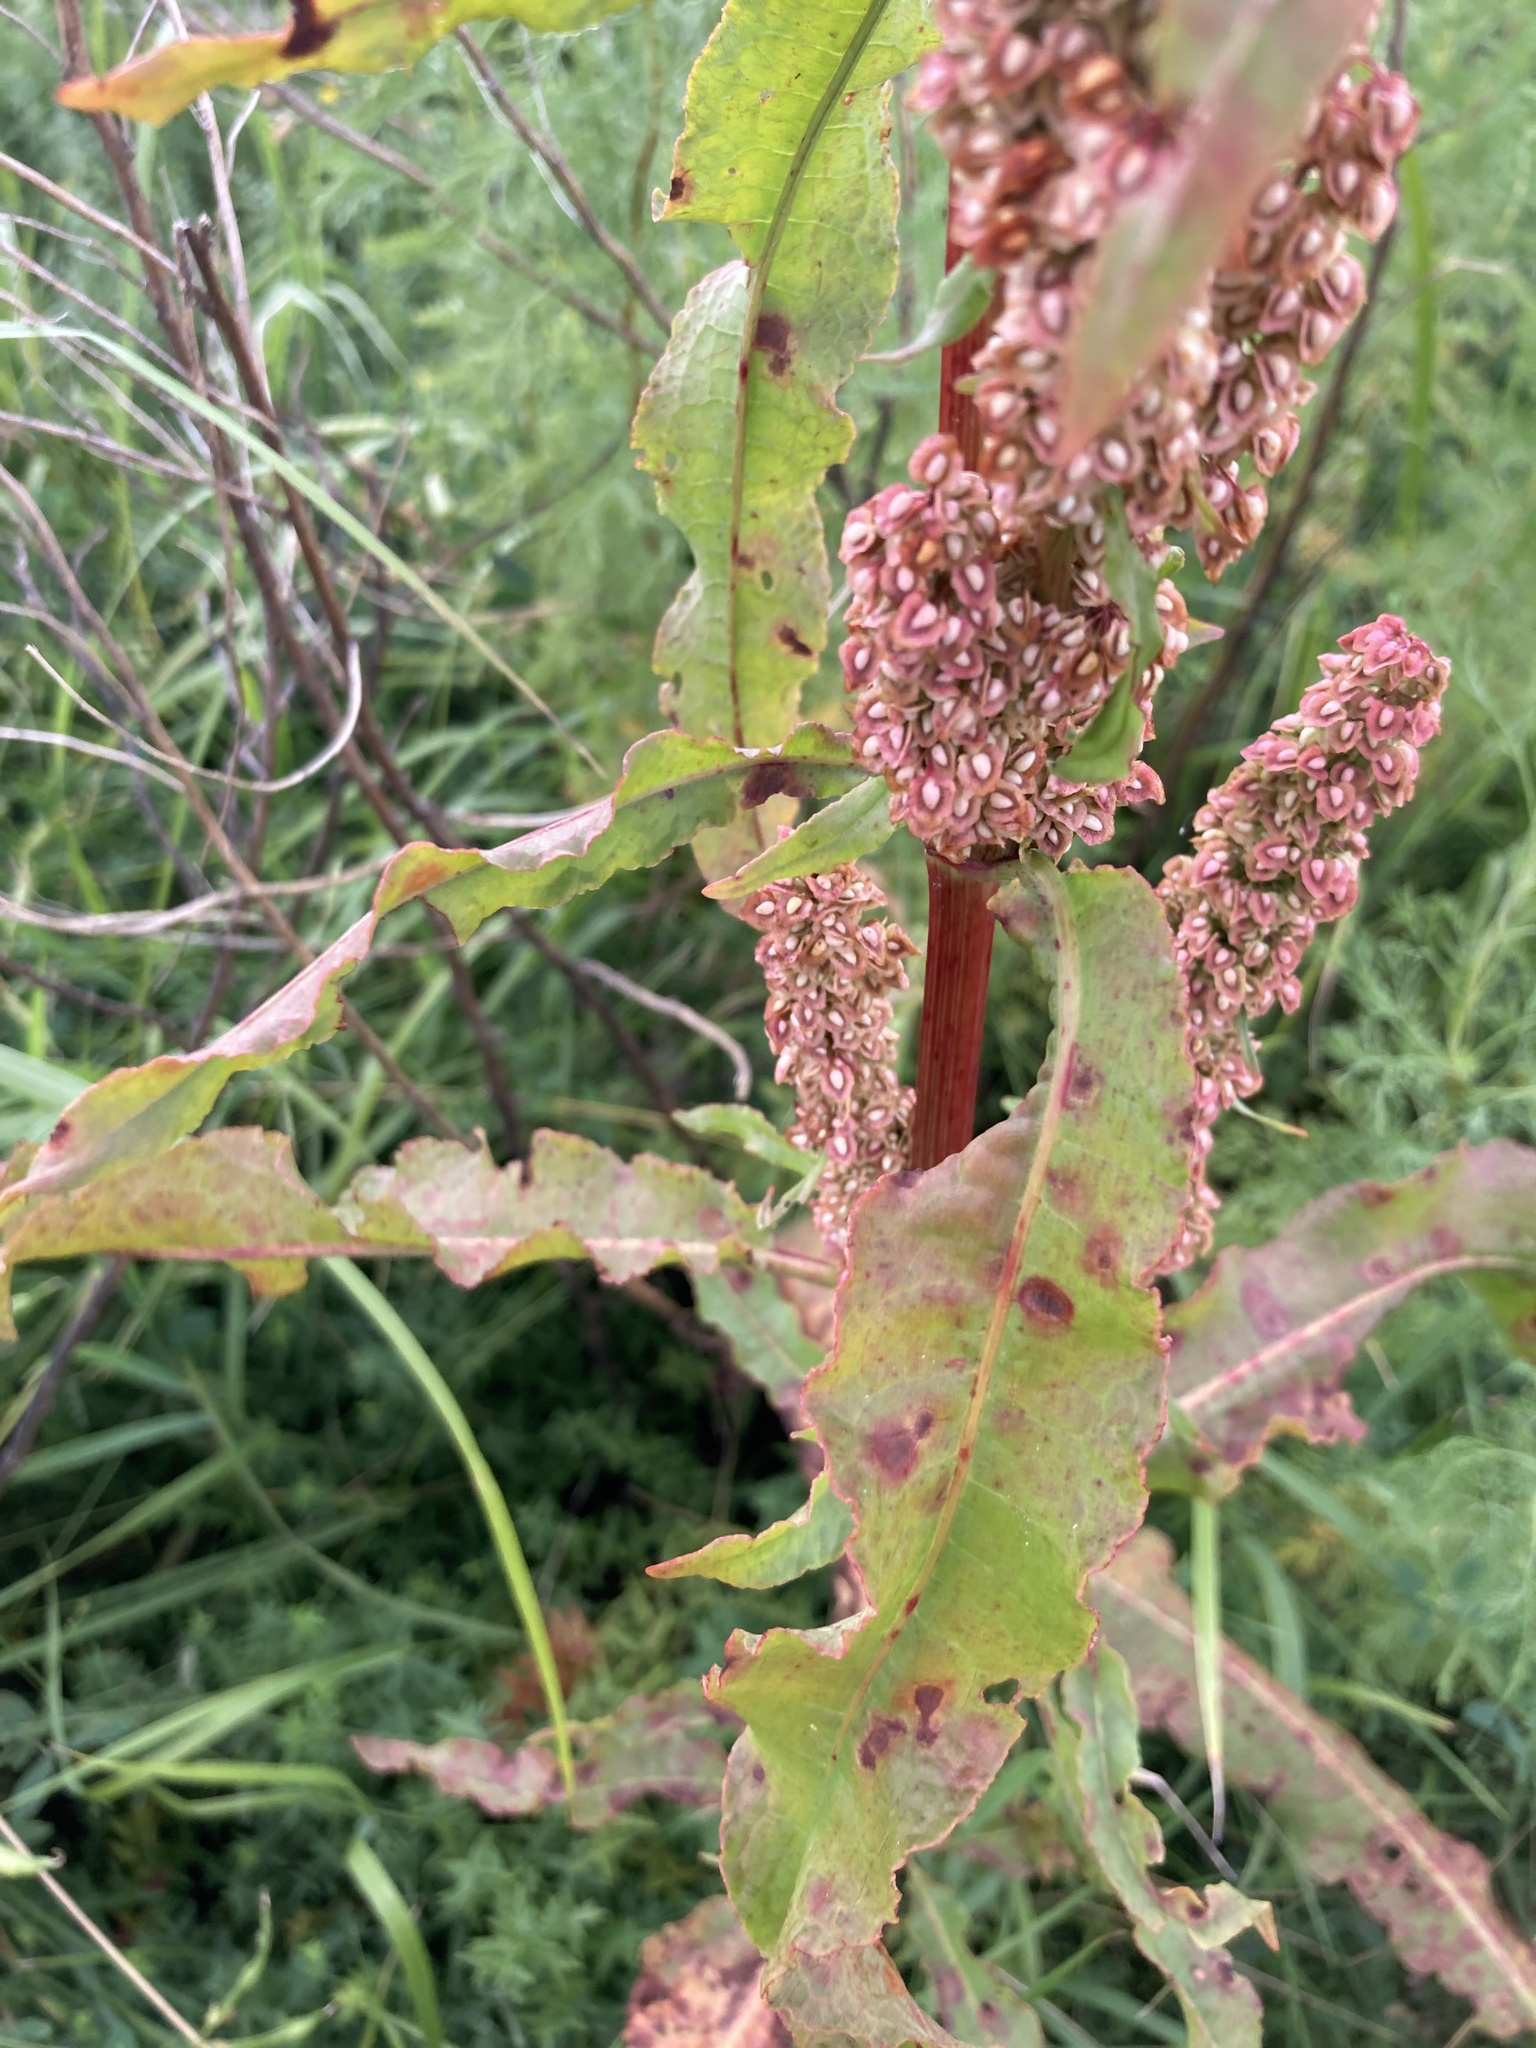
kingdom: Plantae
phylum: Tracheophyta
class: Magnoliopsida
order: Caryophyllales
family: Polygonaceae
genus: Rumex
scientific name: Rumex crispus
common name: Curled dock
